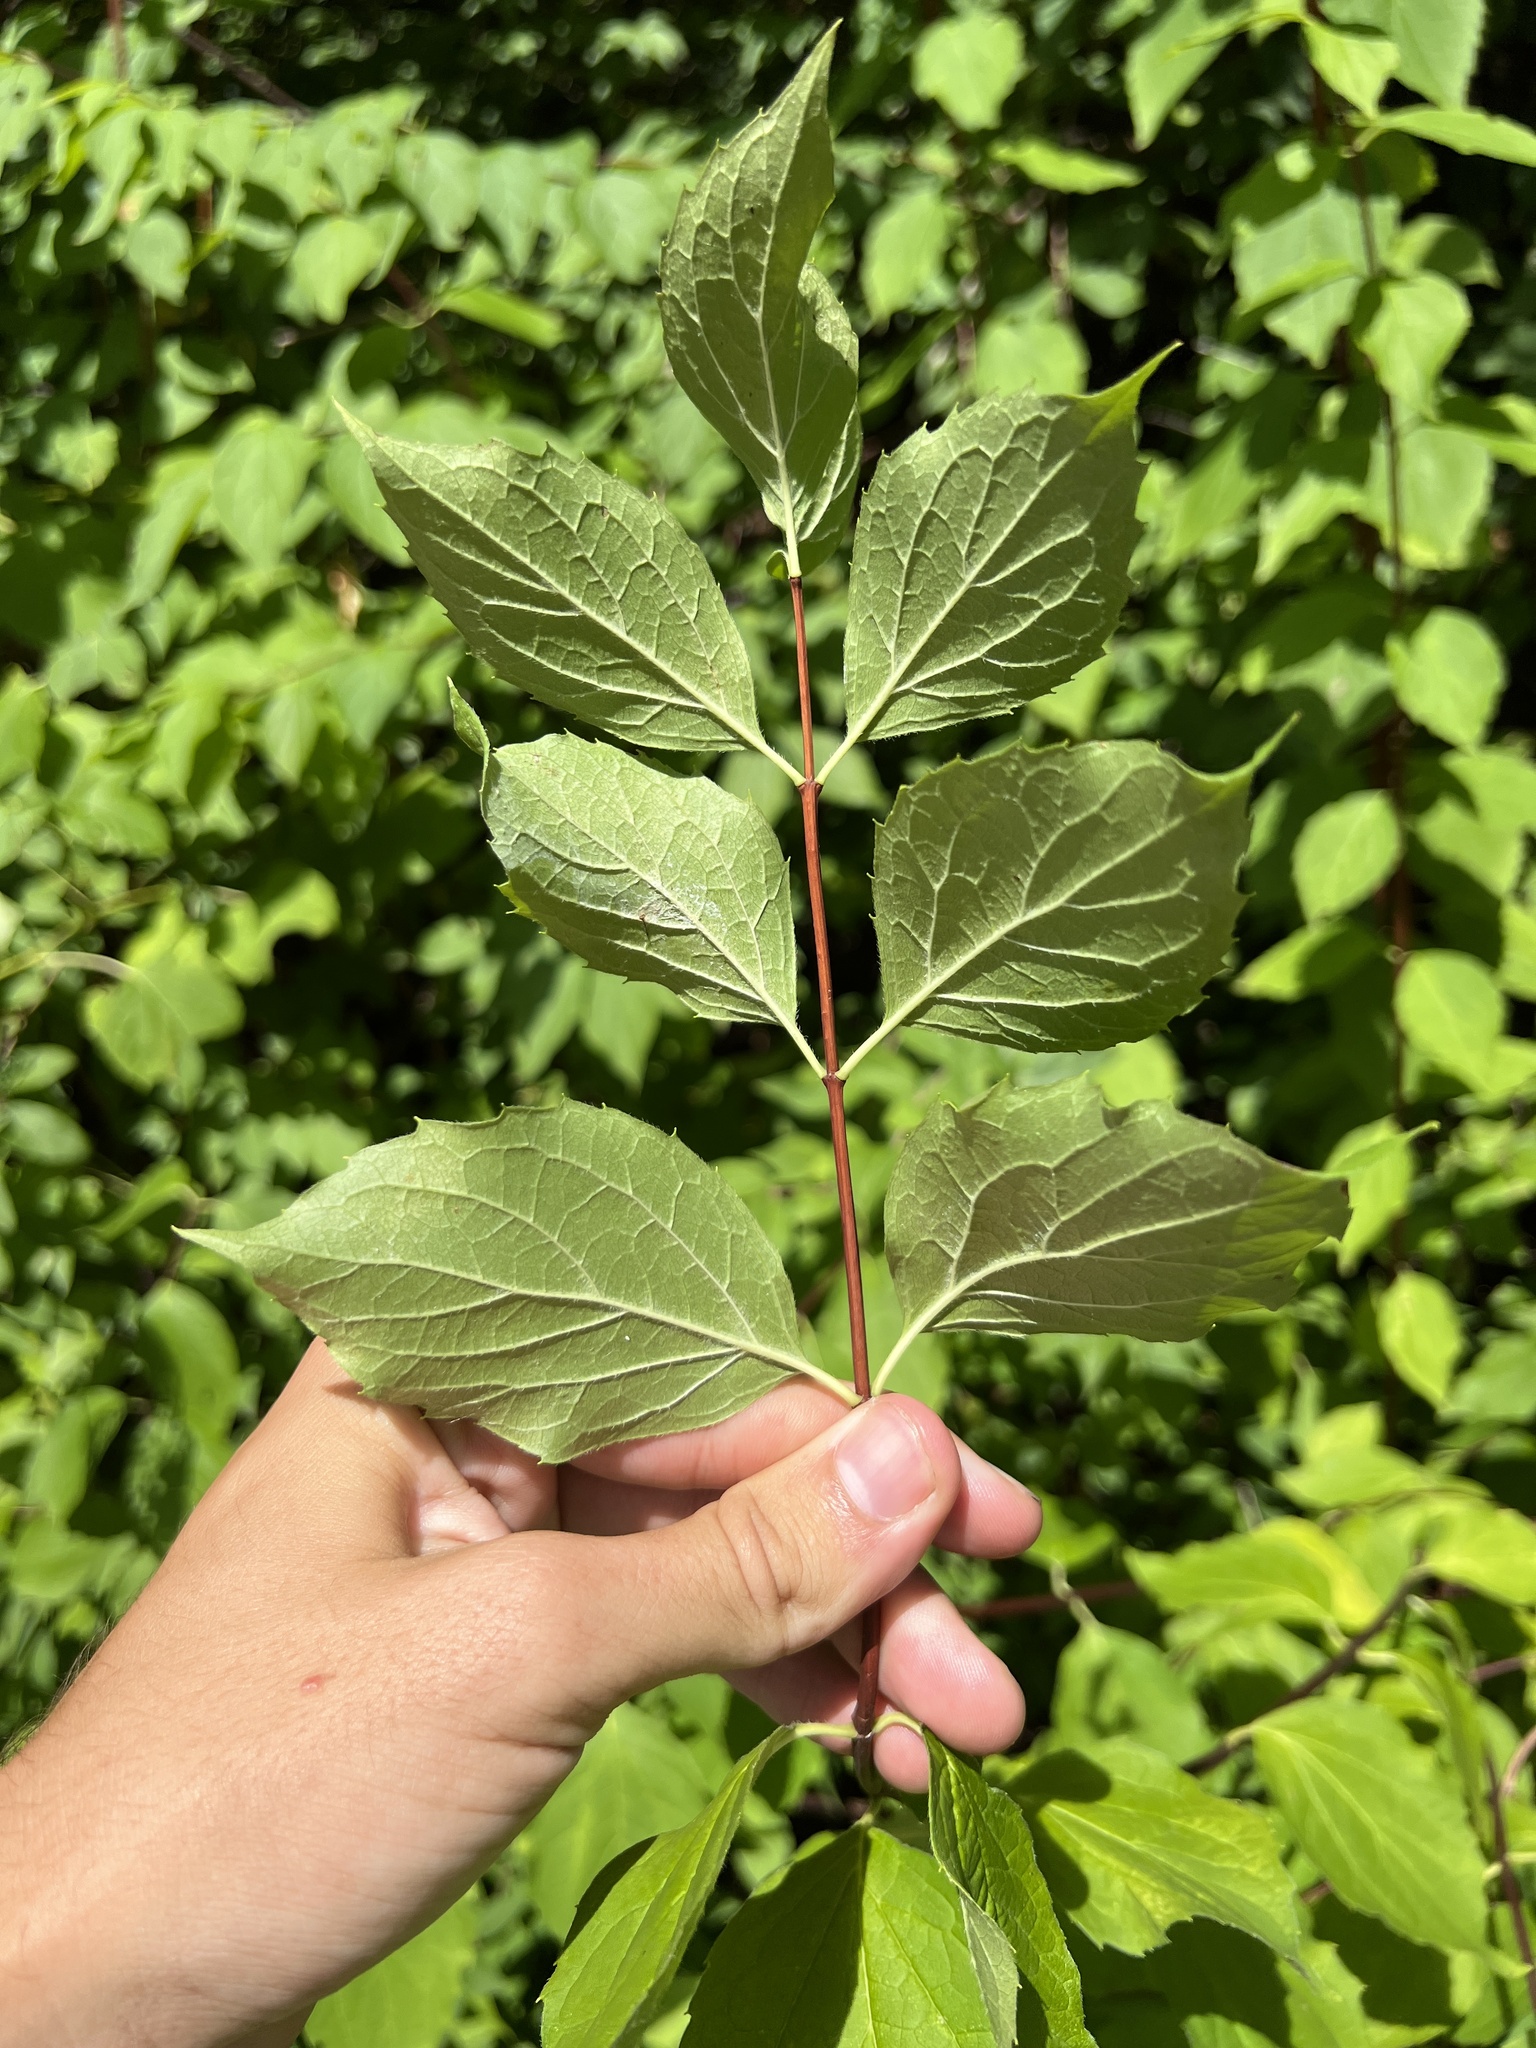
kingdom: Plantae
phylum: Tracheophyta
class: Magnoliopsida
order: Cornales
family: Hydrangeaceae
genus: Philadelphus
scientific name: Philadelphus coronarius
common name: Mock orange
